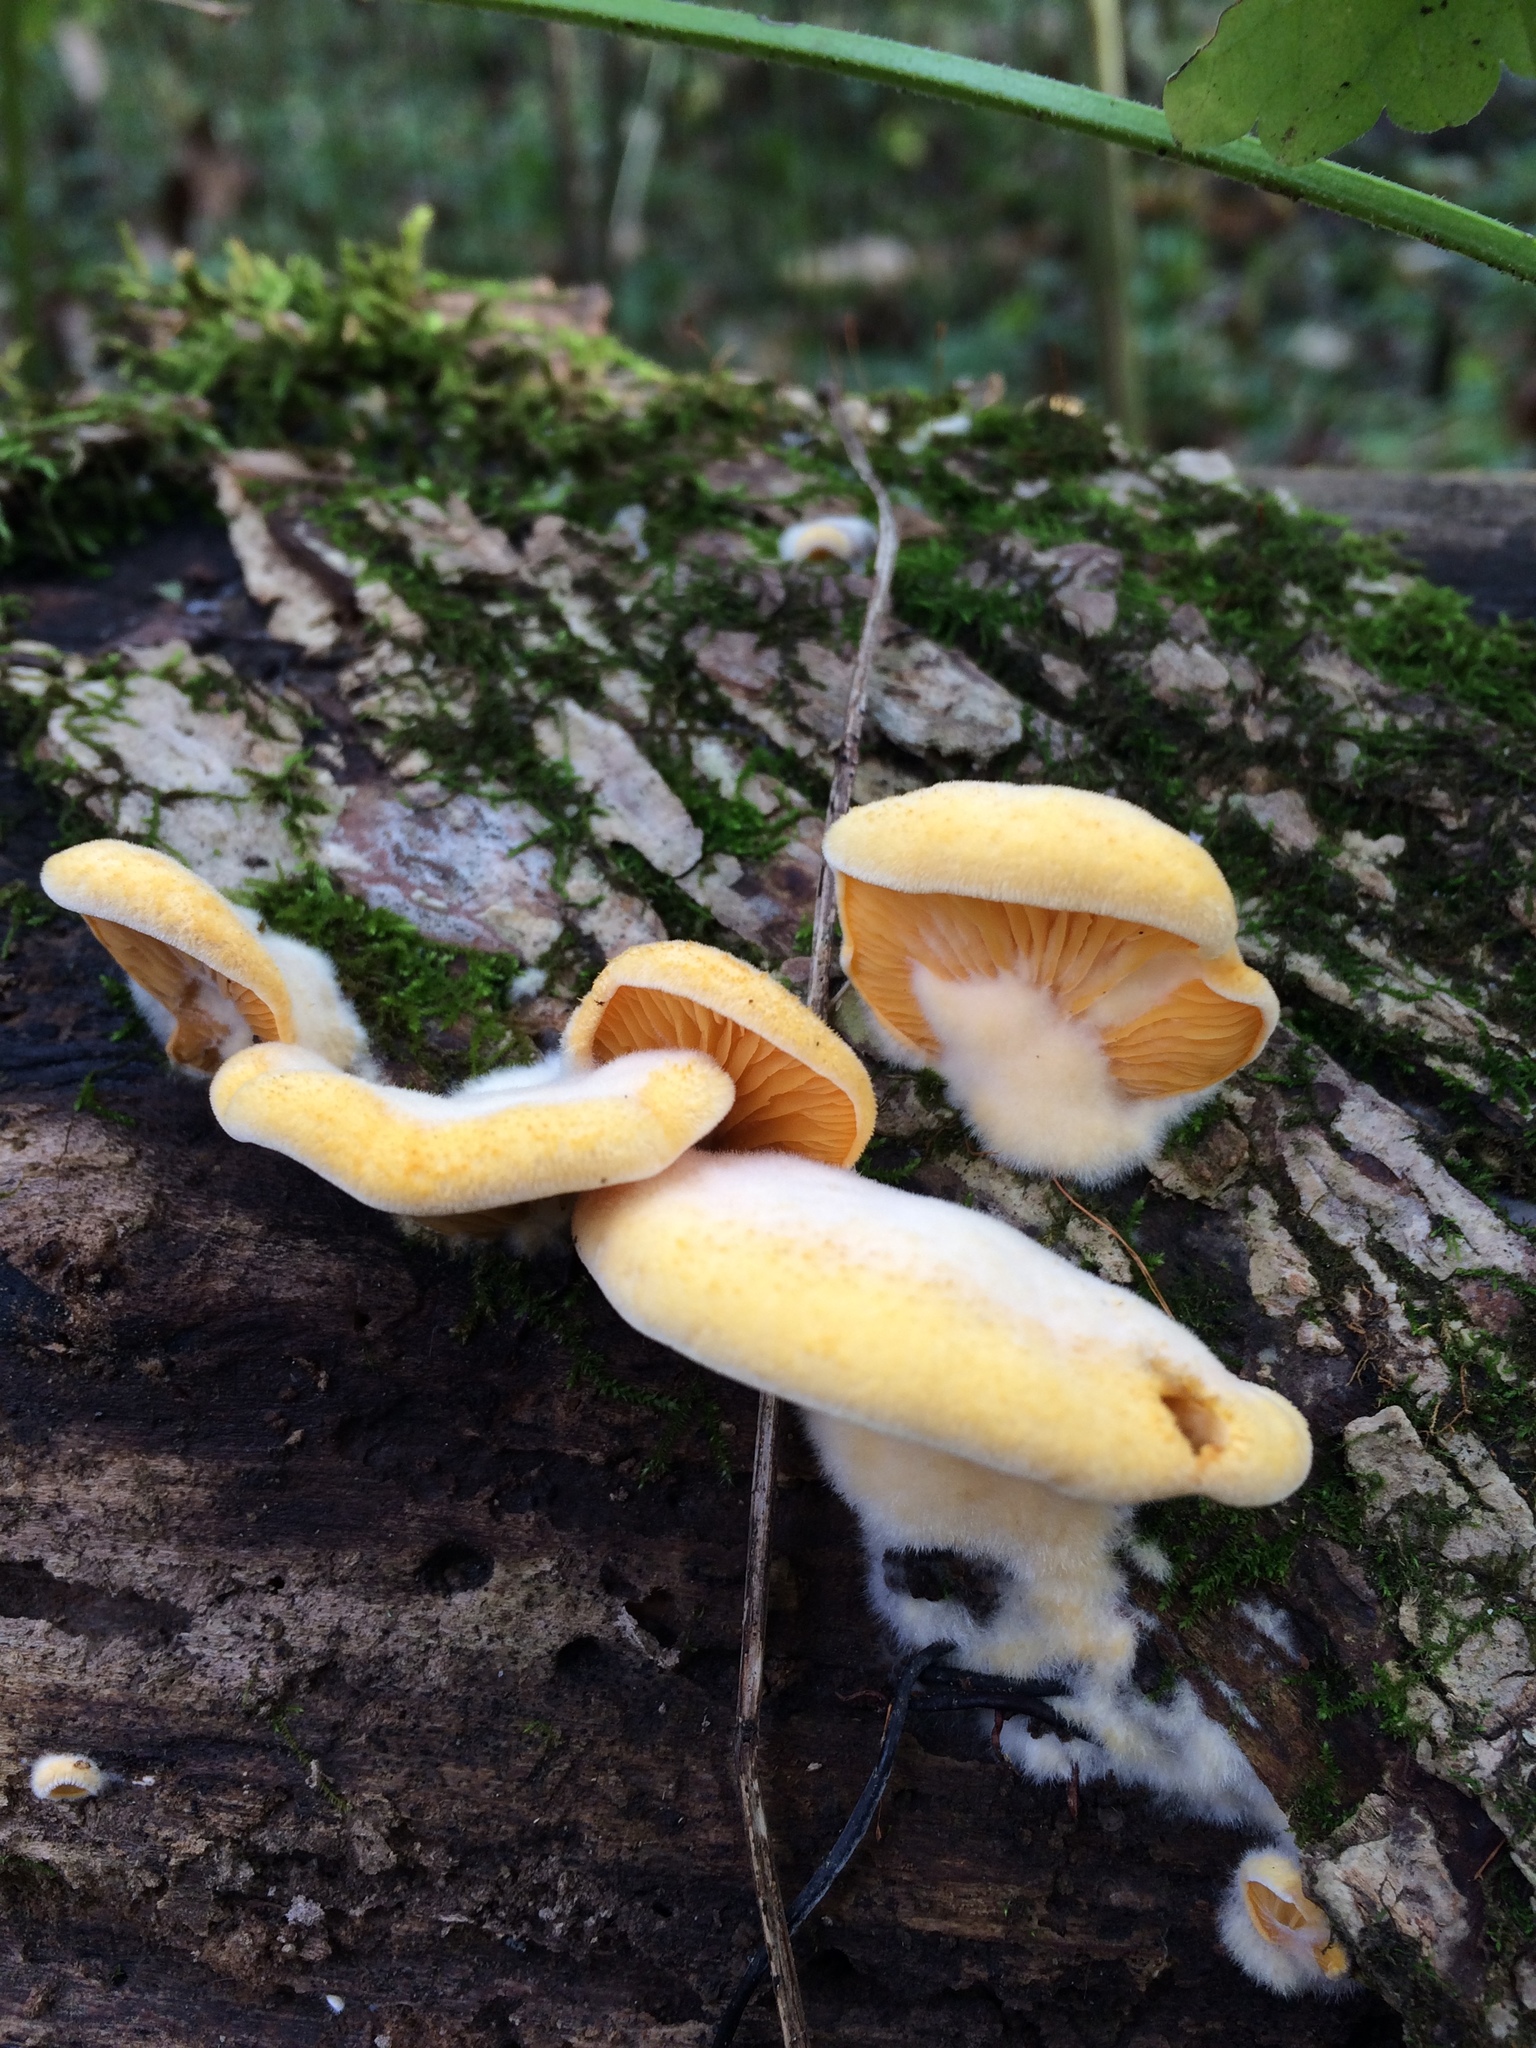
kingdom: Fungi
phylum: Basidiomycota
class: Agaricomycetes
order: Agaricales
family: Phyllotopsidaceae
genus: Phyllotopsis
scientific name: Phyllotopsis nidulans
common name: Orange mock oyster
